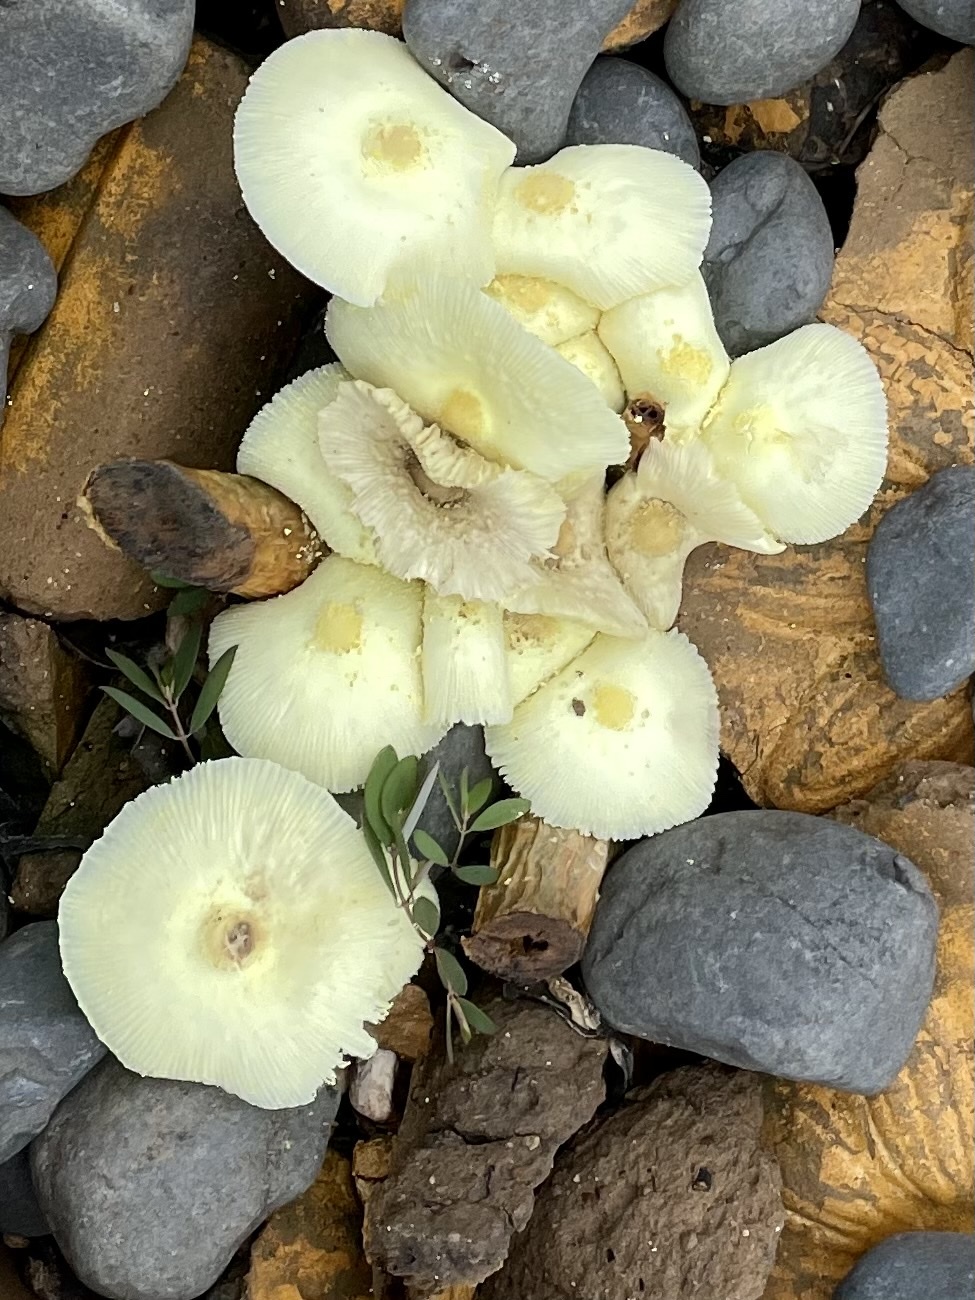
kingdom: Fungi
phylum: Basidiomycota
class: Agaricomycetes
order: Agaricales
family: Agaricaceae
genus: Leucocoprinus
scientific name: Leucocoprinus birnbaumii
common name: Plantpot dapperling
